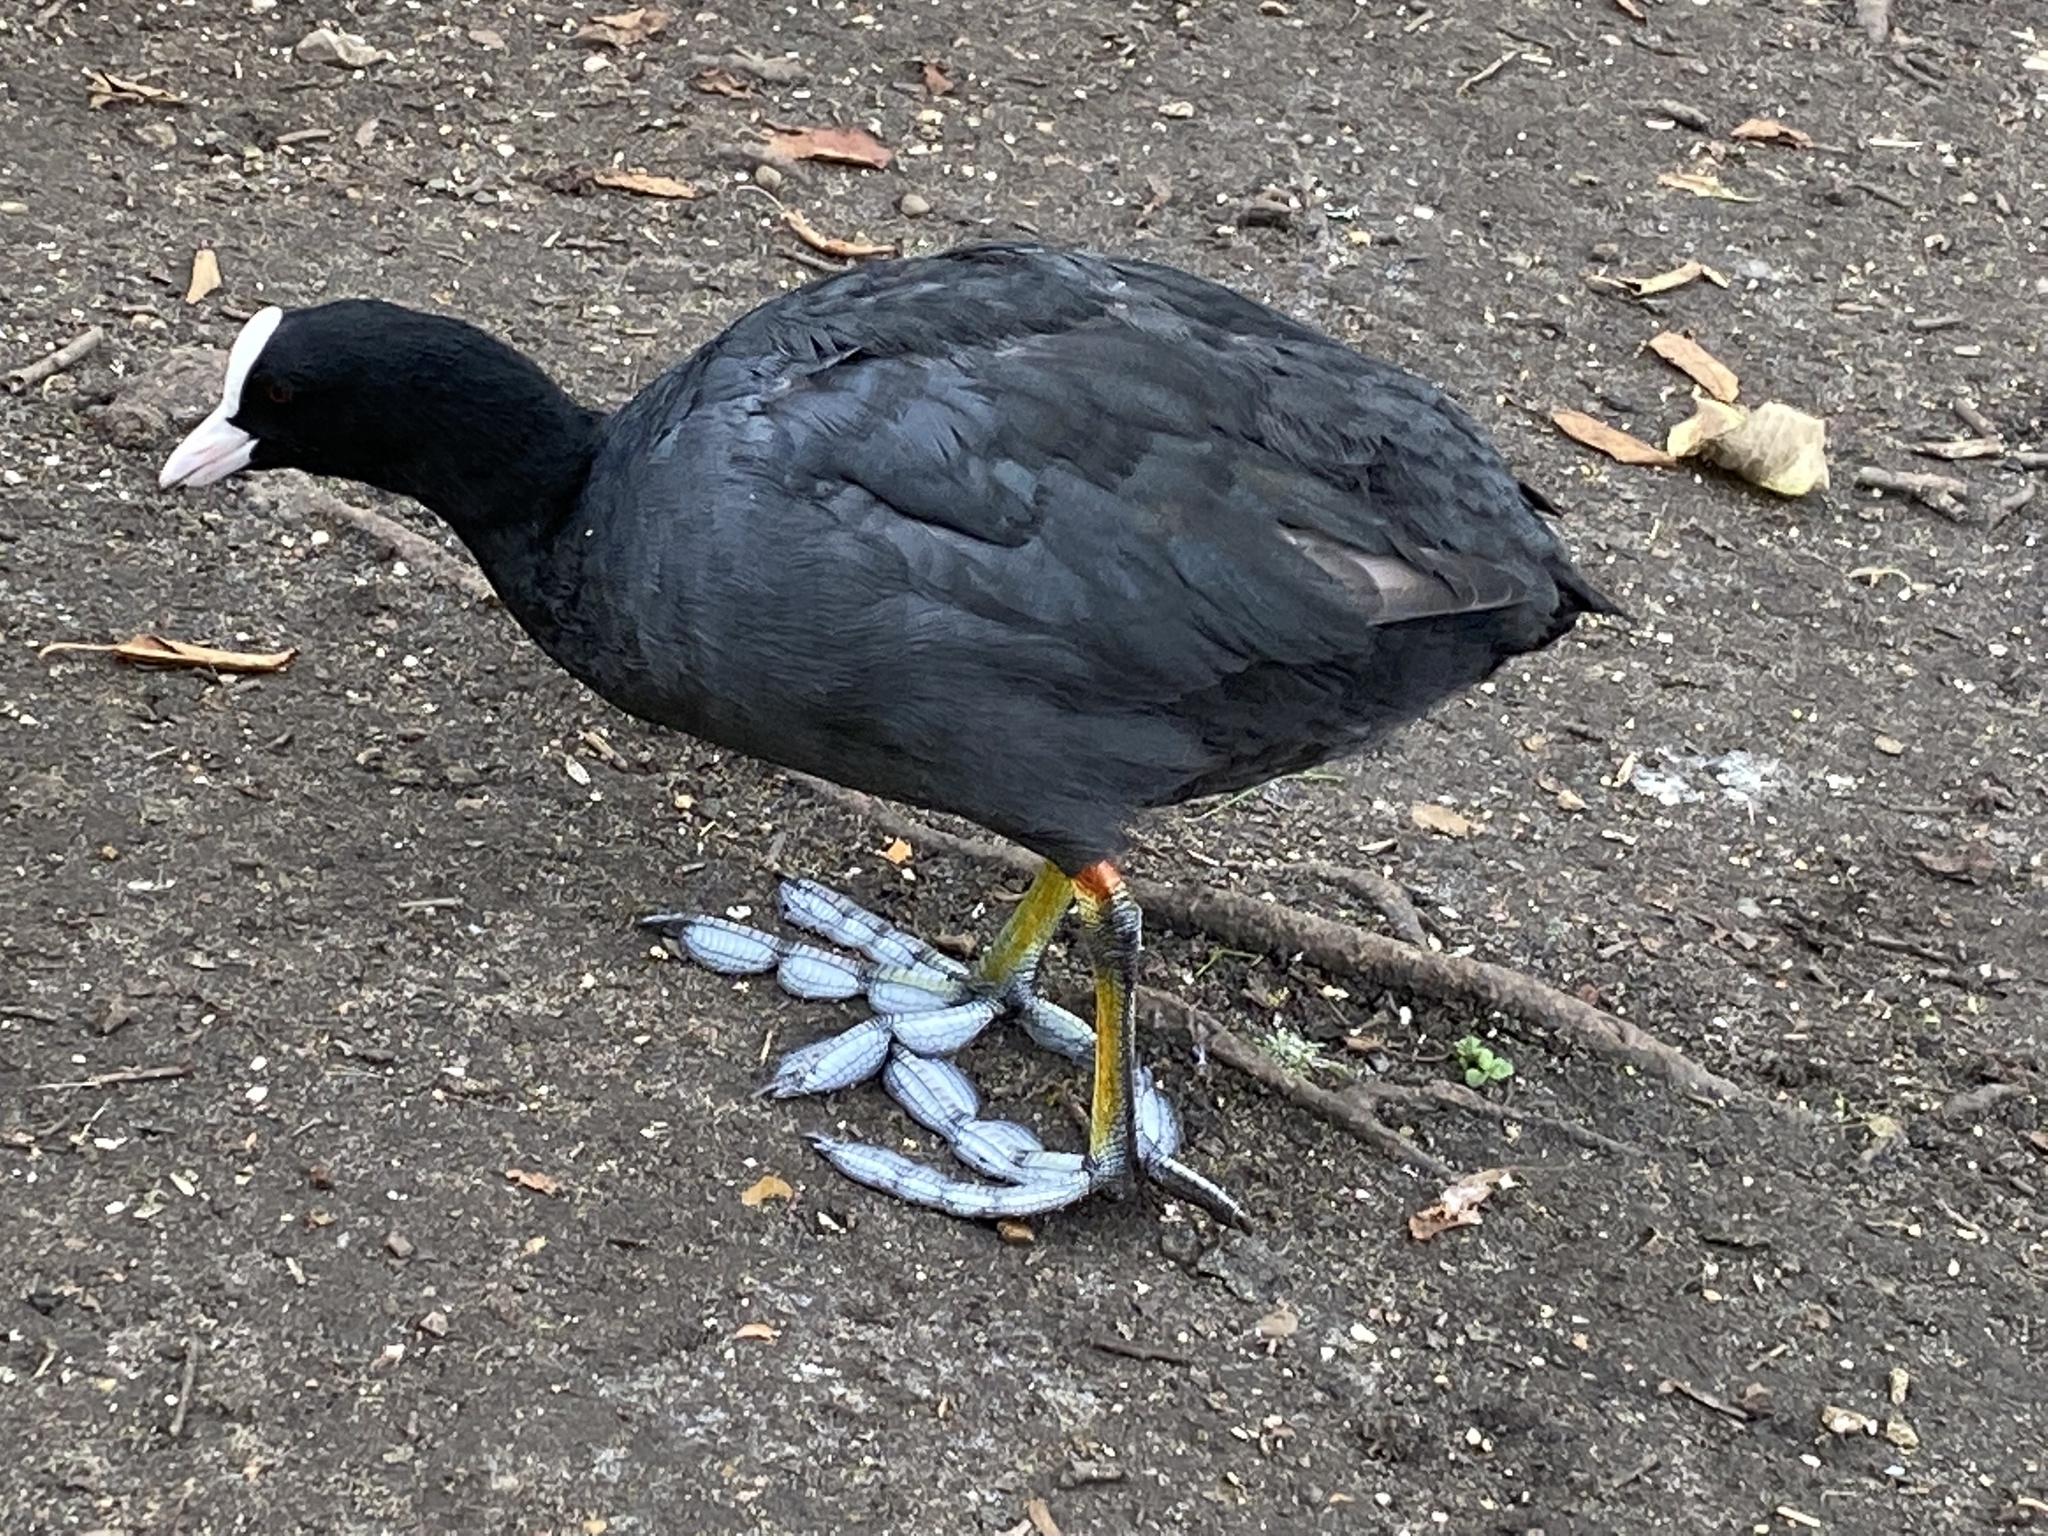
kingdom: Animalia
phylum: Chordata
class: Aves
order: Gruiformes
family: Rallidae
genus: Fulica
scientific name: Fulica atra
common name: Eurasian coot
